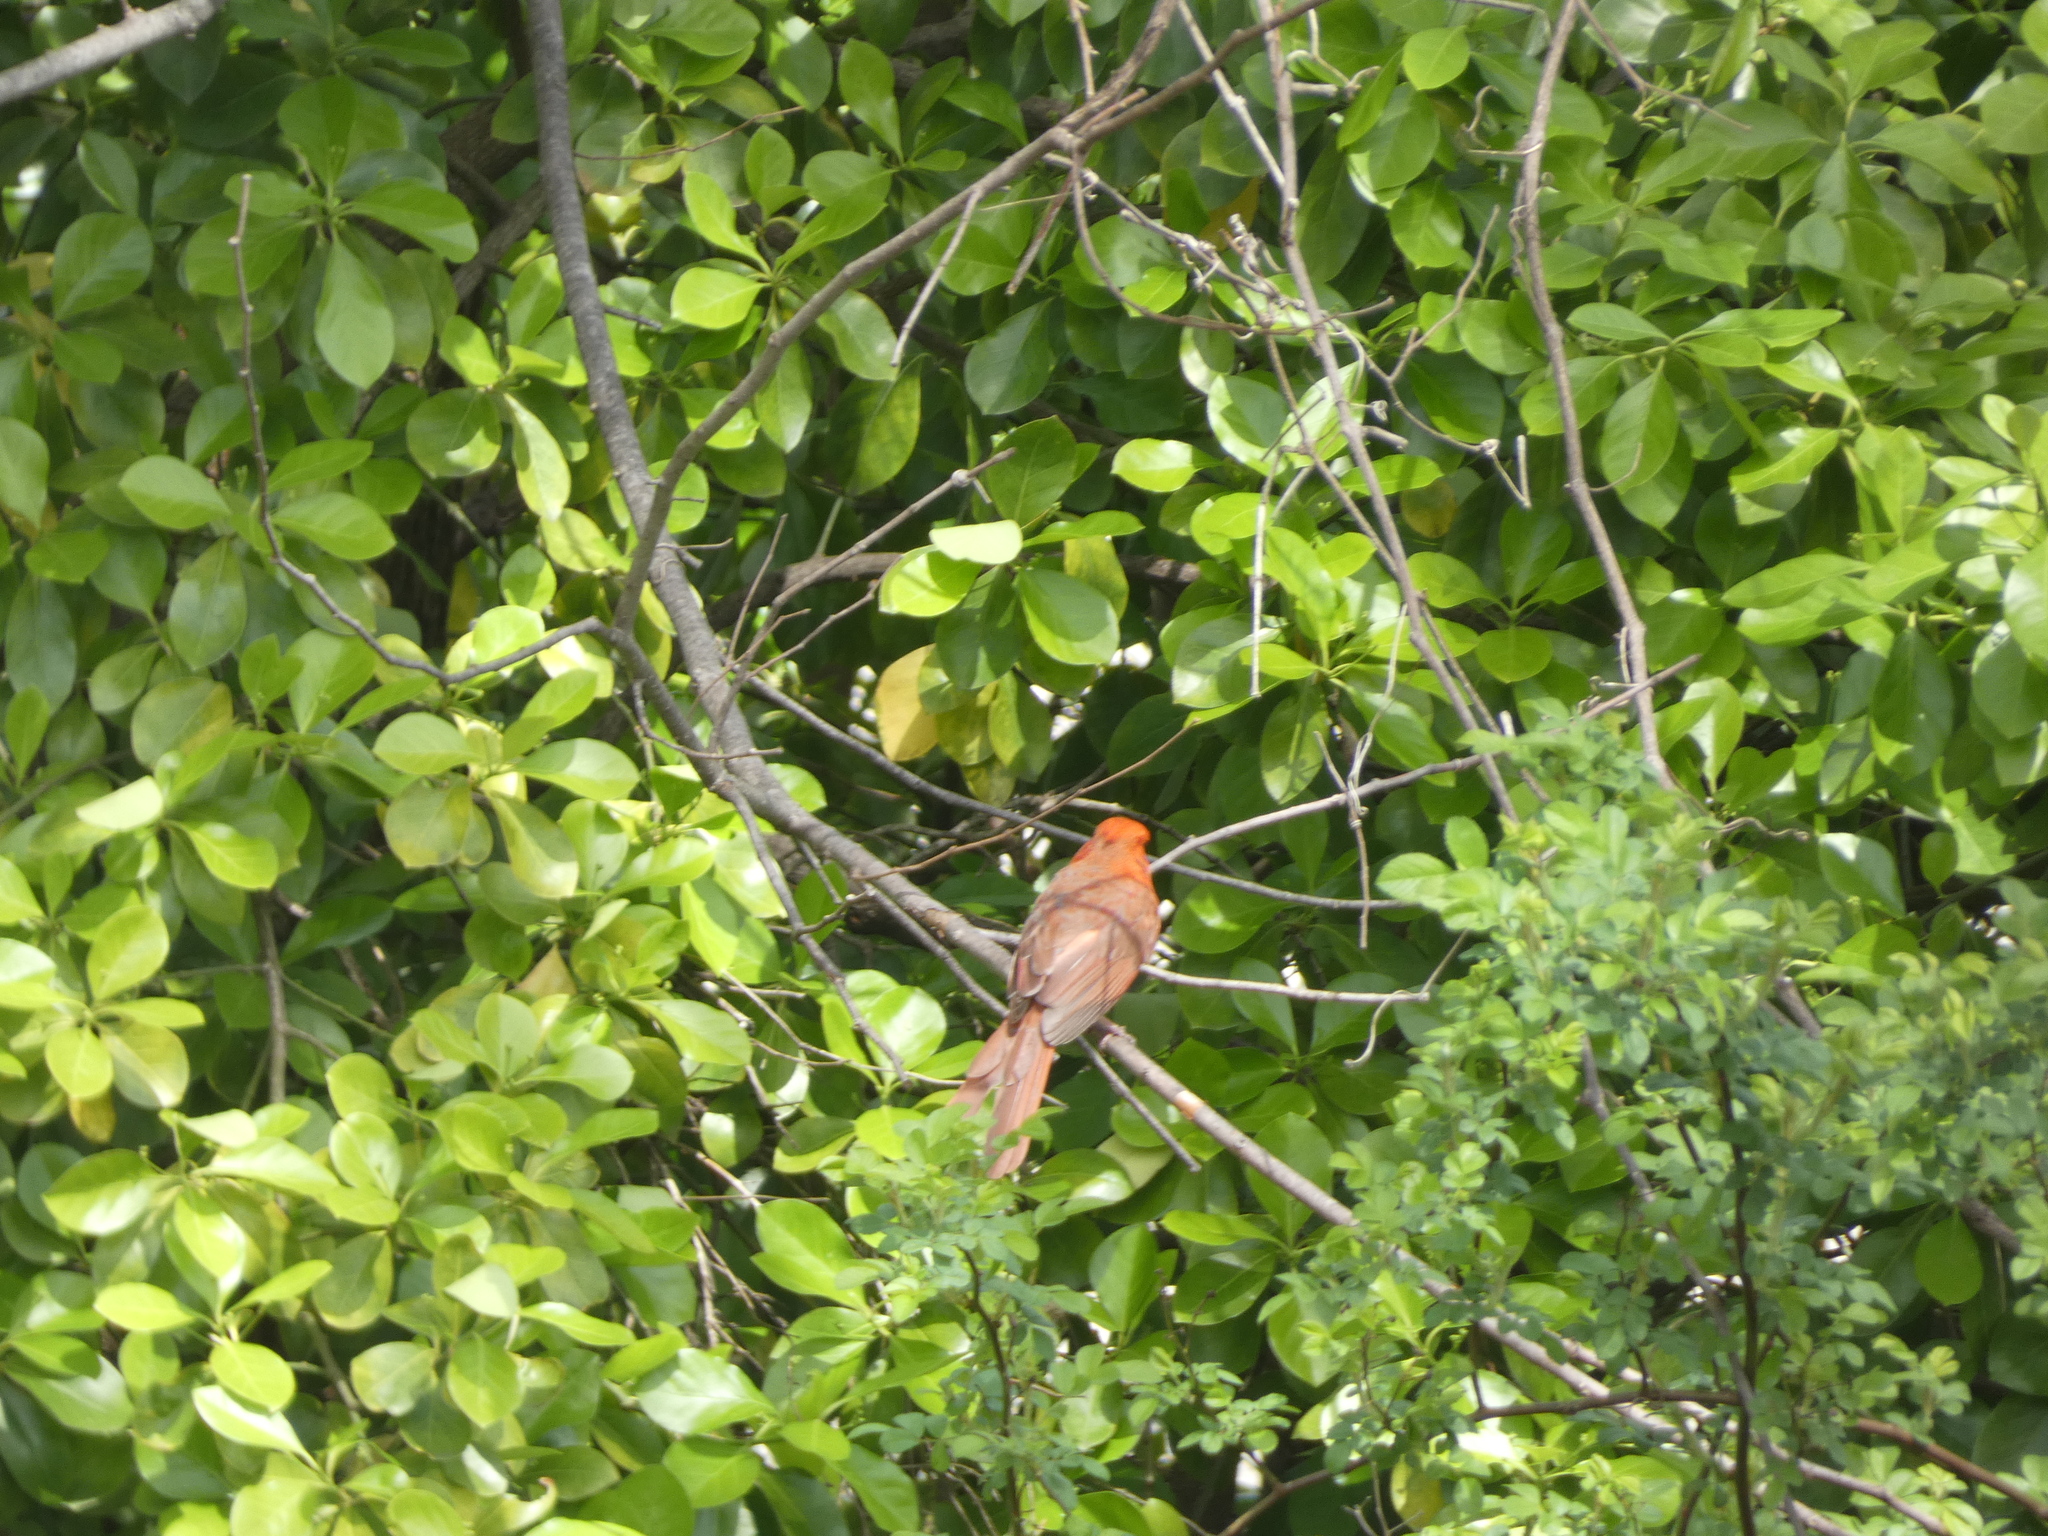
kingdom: Animalia
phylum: Chordata
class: Aves
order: Passeriformes
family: Cardinalidae
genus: Cardinalis
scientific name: Cardinalis cardinalis
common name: Northern cardinal
